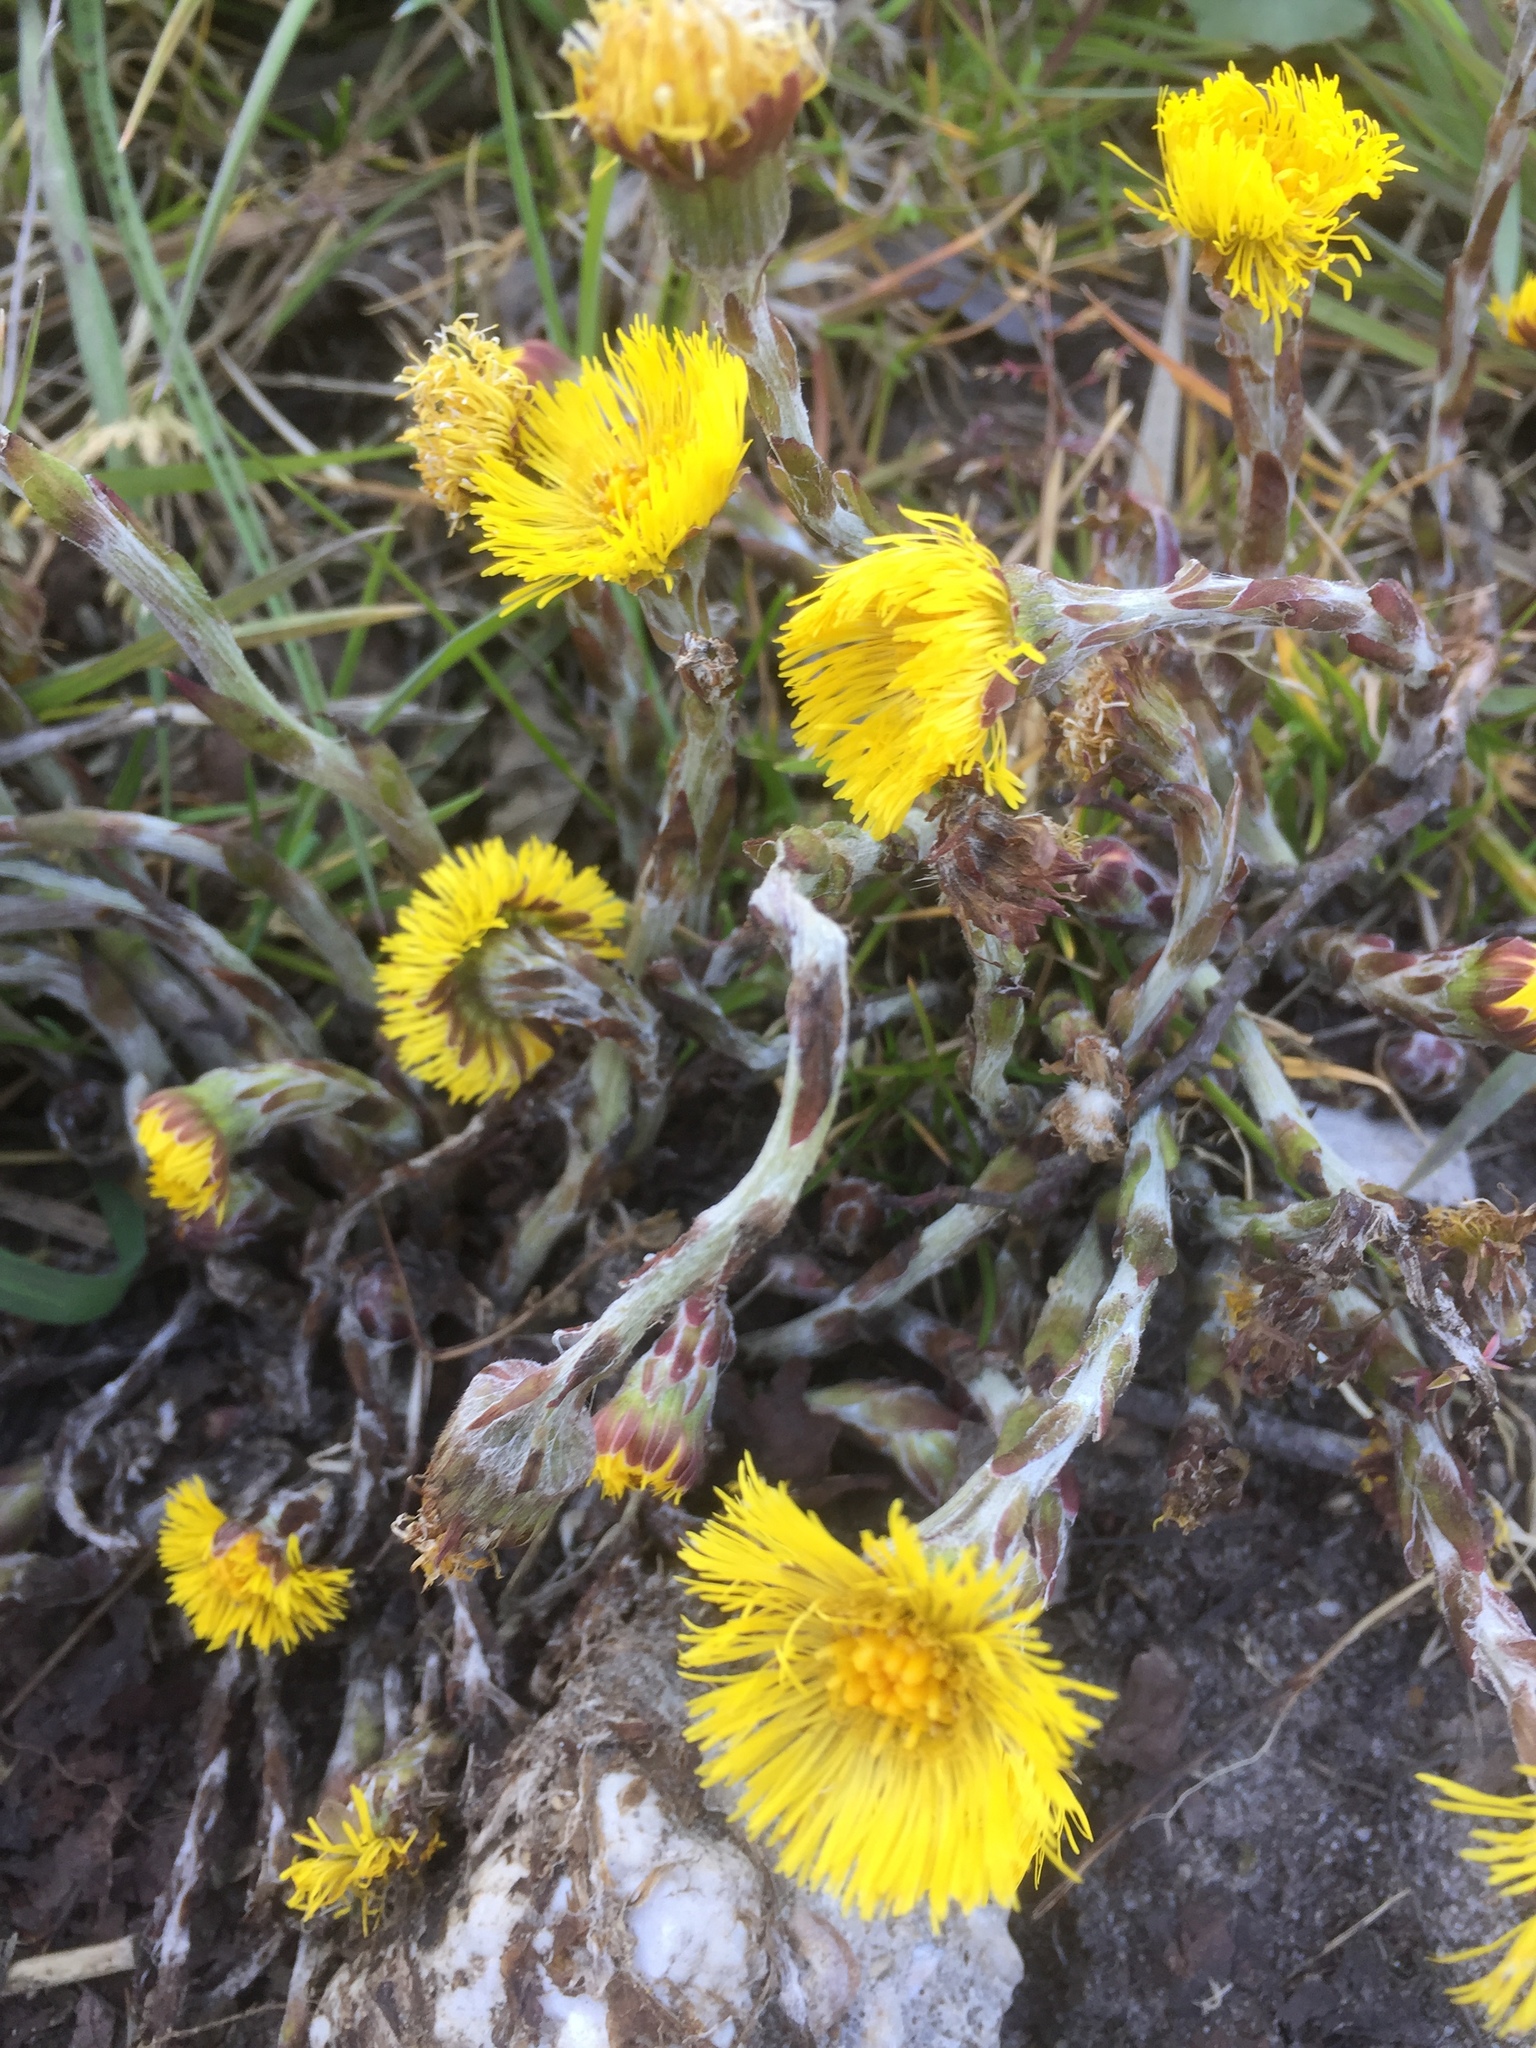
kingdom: Plantae
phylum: Tracheophyta
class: Magnoliopsida
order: Asterales
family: Asteraceae
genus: Tussilago
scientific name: Tussilago farfara
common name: Coltsfoot
